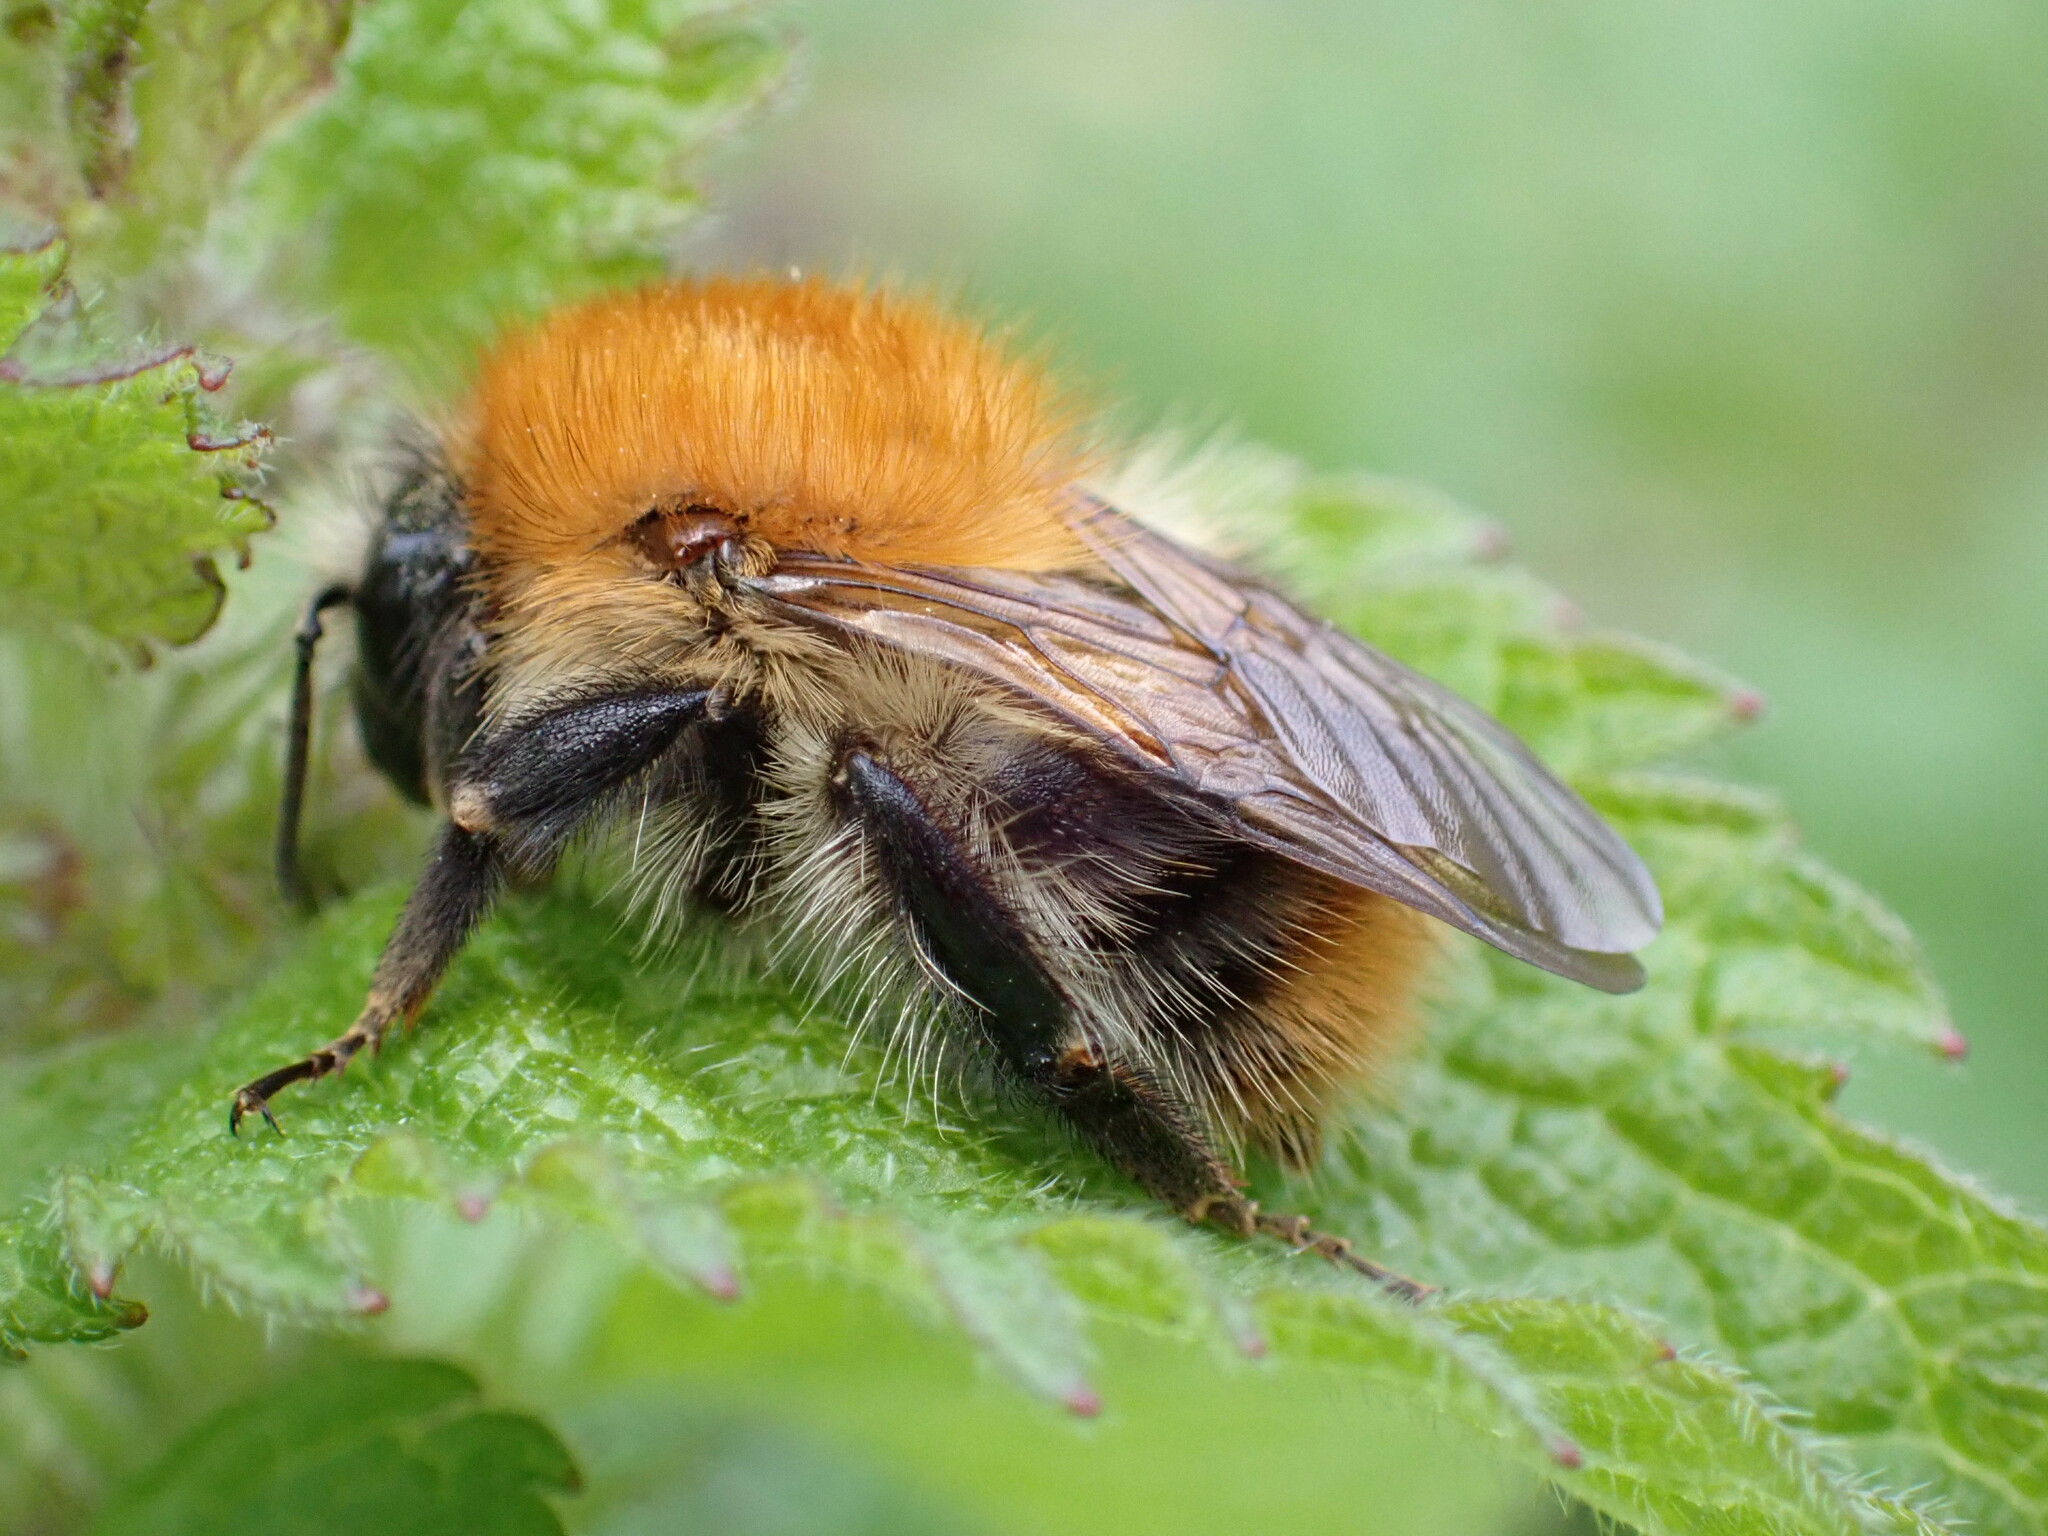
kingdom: Animalia
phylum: Arthropoda
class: Insecta
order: Hymenoptera
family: Apidae
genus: Bombus
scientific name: Bombus pascuorum
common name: Common carder bee
